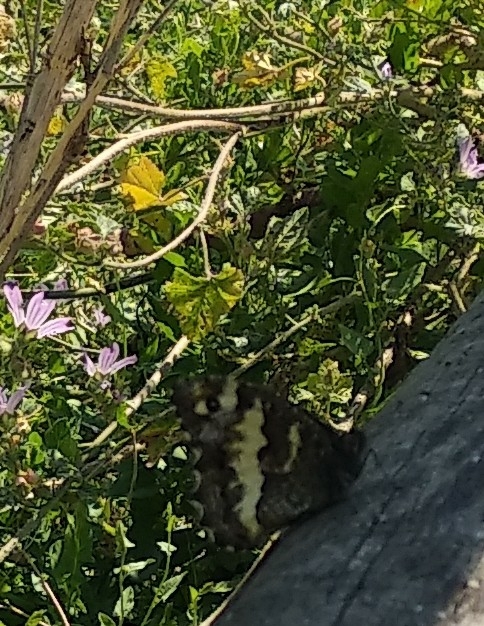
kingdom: Animalia
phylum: Arthropoda
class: Insecta
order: Lepidoptera
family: Lycaenidae
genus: Loweia
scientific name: Loweia tityrus
